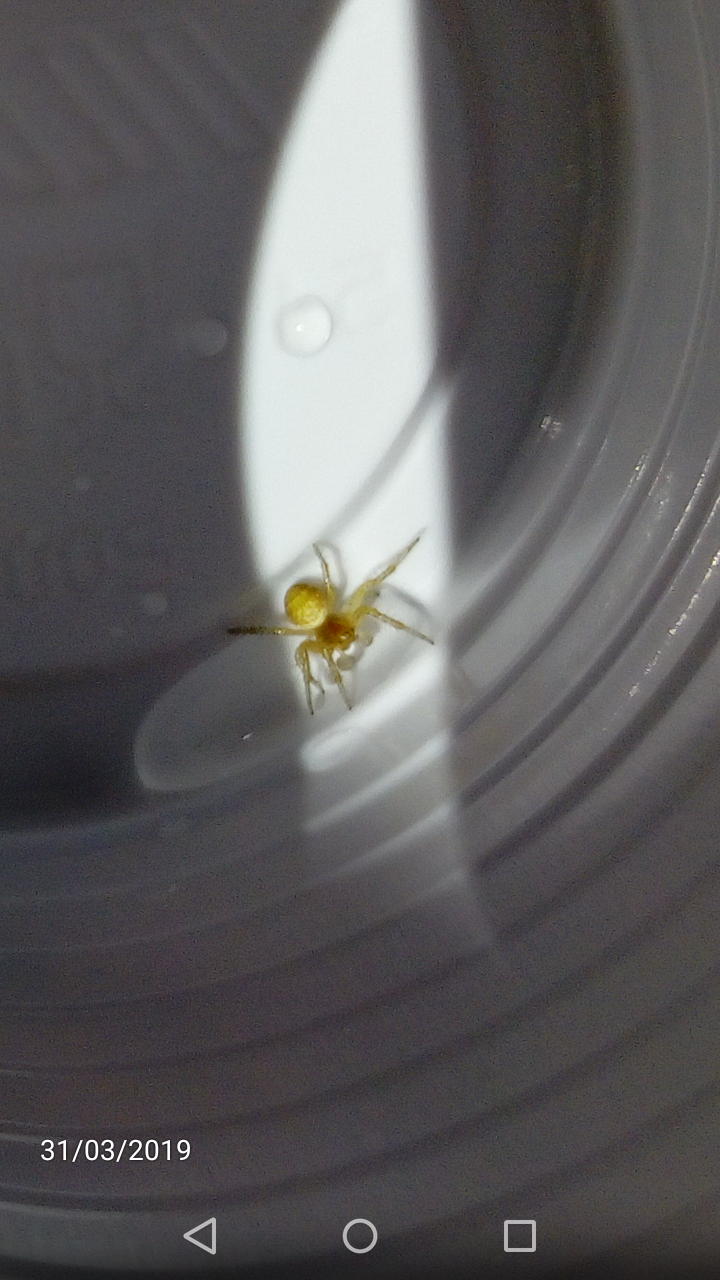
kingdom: Animalia
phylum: Arthropoda
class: Arachnida
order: Araneae
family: Araneidae
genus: Araniella
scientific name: Araniella
